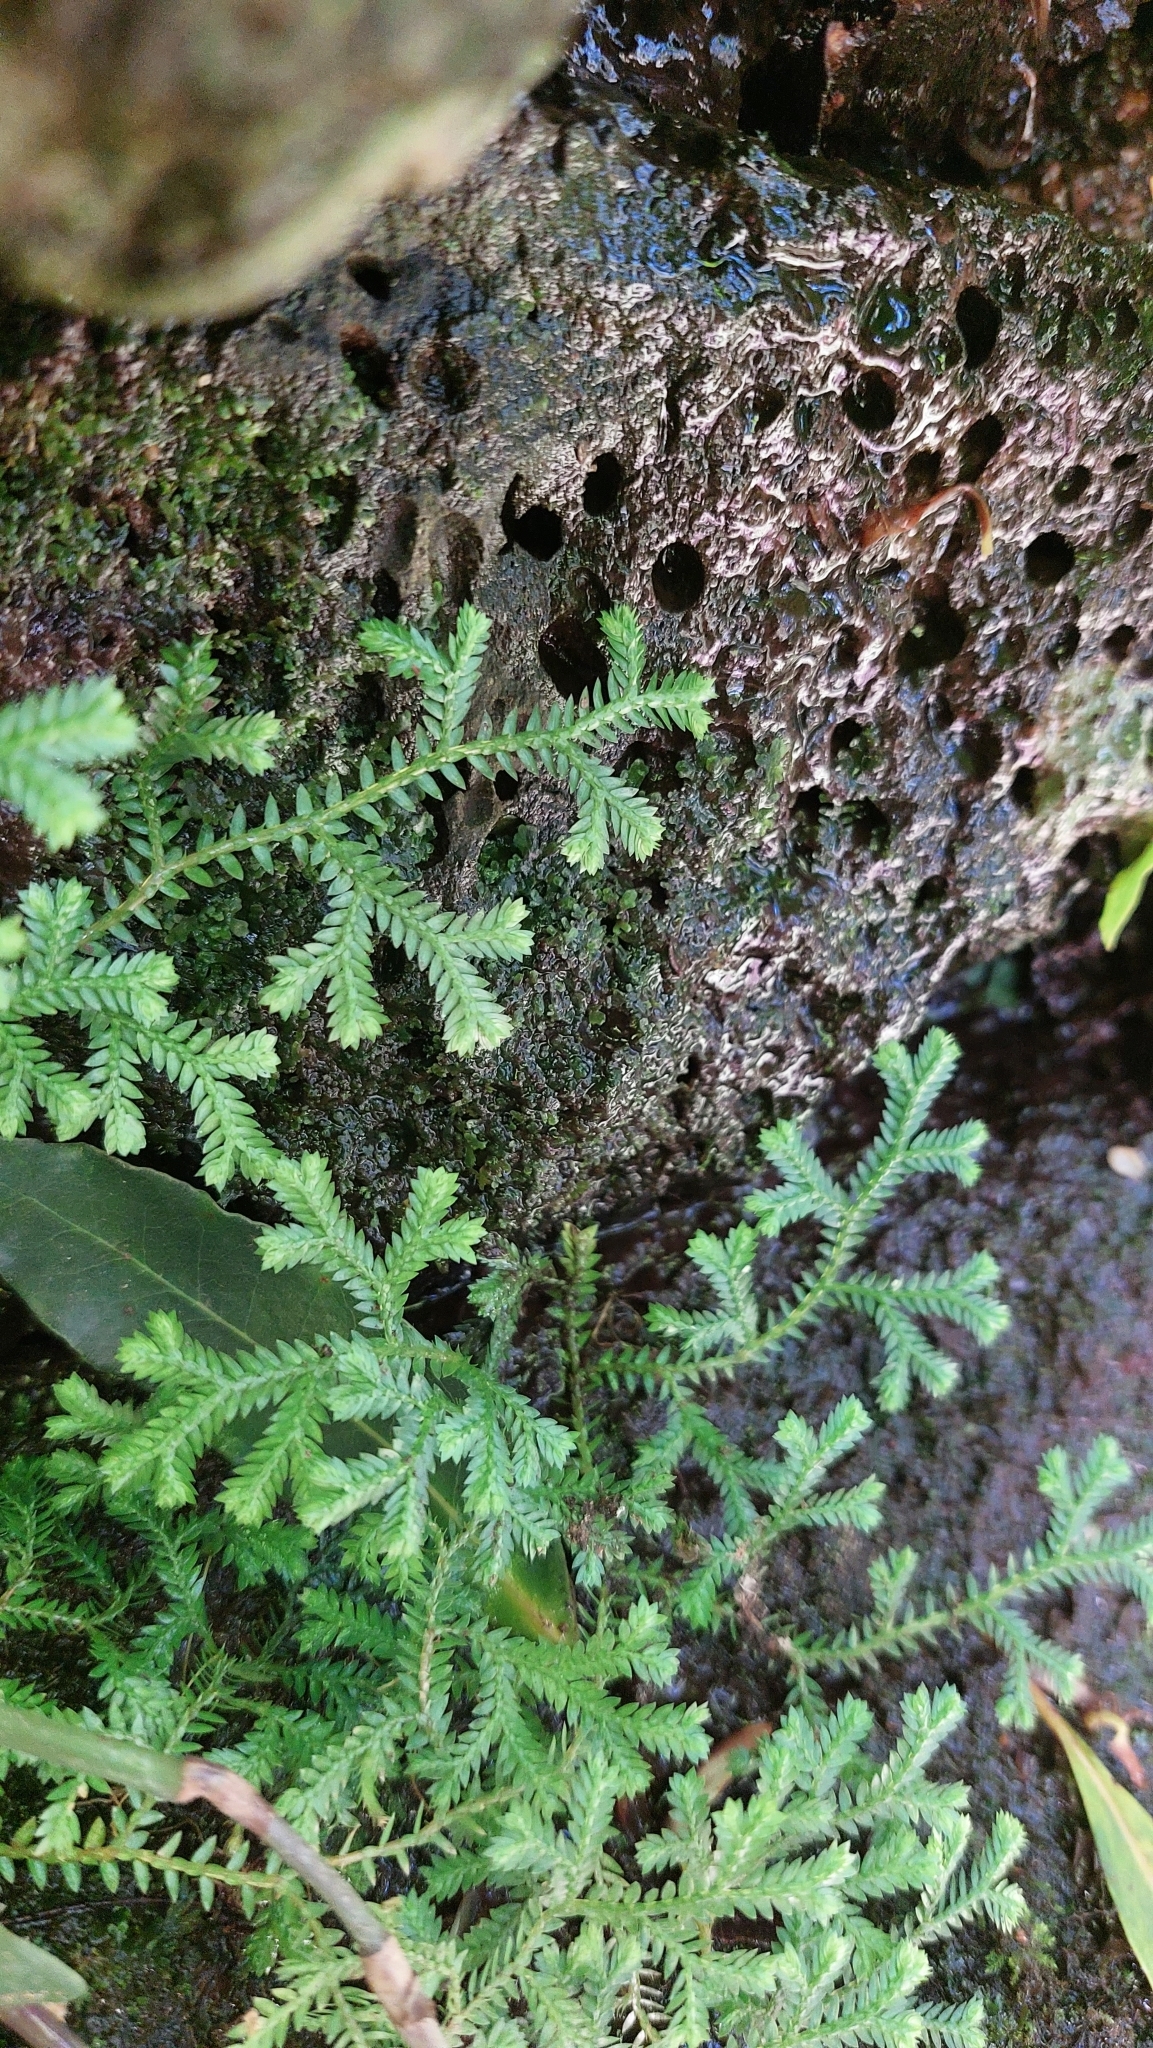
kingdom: Plantae
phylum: Tracheophyta
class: Lycopodiopsida
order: Selaginellales
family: Selaginellaceae
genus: Selaginella
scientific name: Selaginella kraussiana
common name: Krauss' spikemoss
